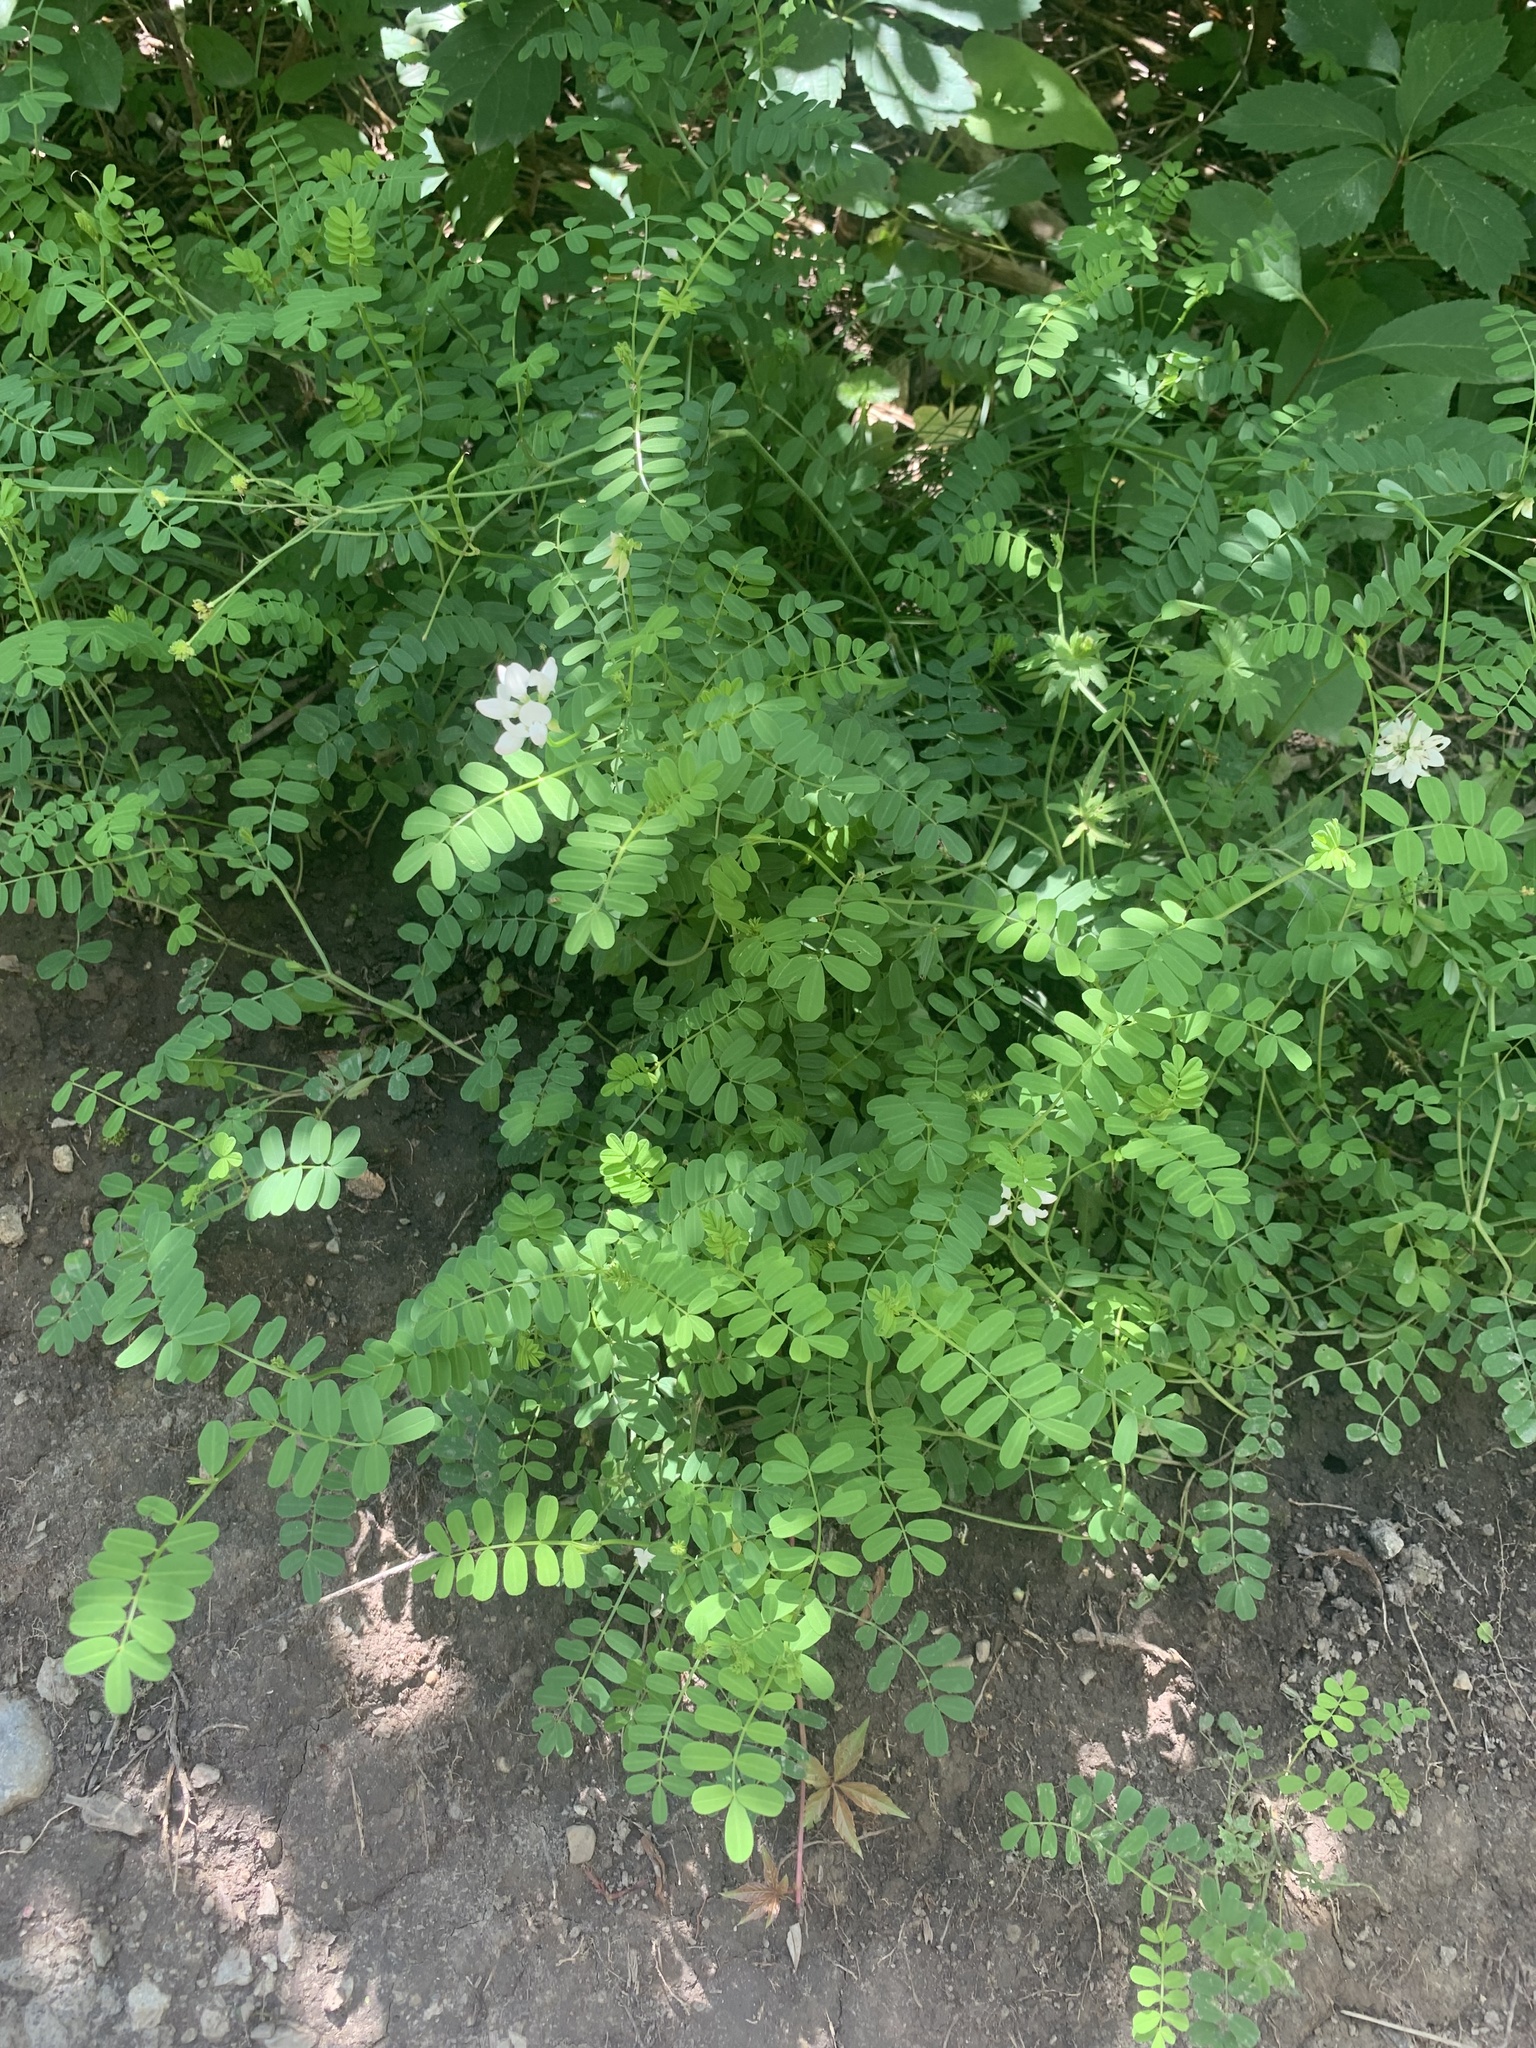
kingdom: Plantae
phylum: Tracheophyta
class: Magnoliopsida
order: Fabales
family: Fabaceae
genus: Coronilla
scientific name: Coronilla varia
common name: Crownvetch
